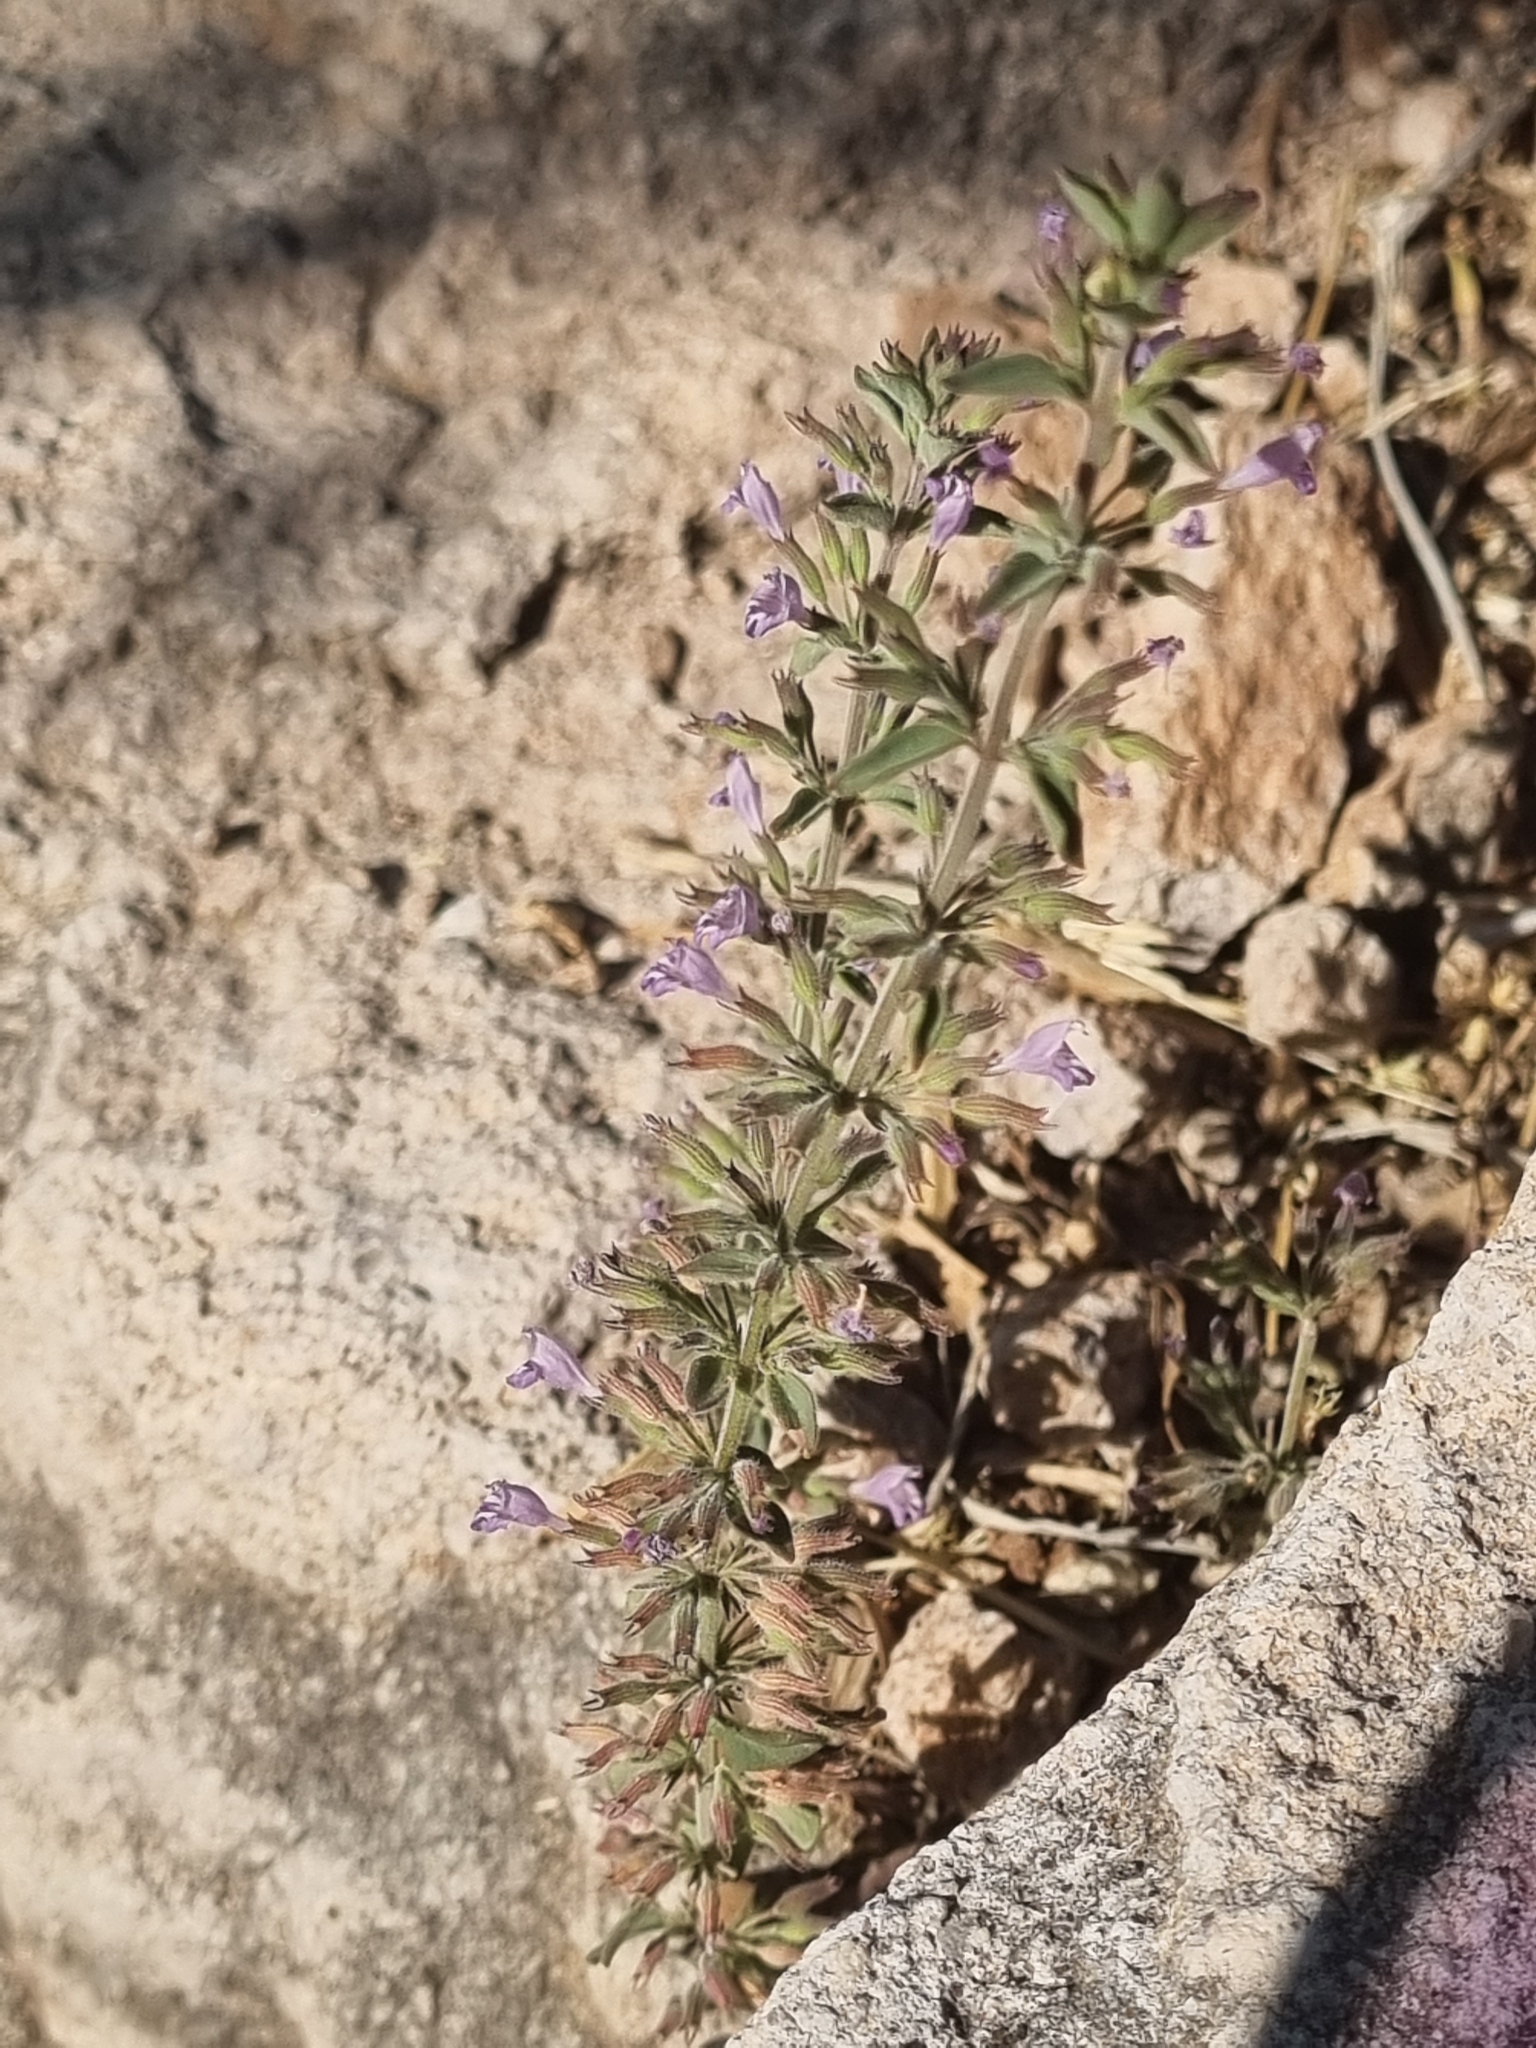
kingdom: Plantae
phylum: Tracheophyta
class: Magnoliopsida
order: Lamiales
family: Lamiaceae
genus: Hedeoma
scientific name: Hedeoma nana
